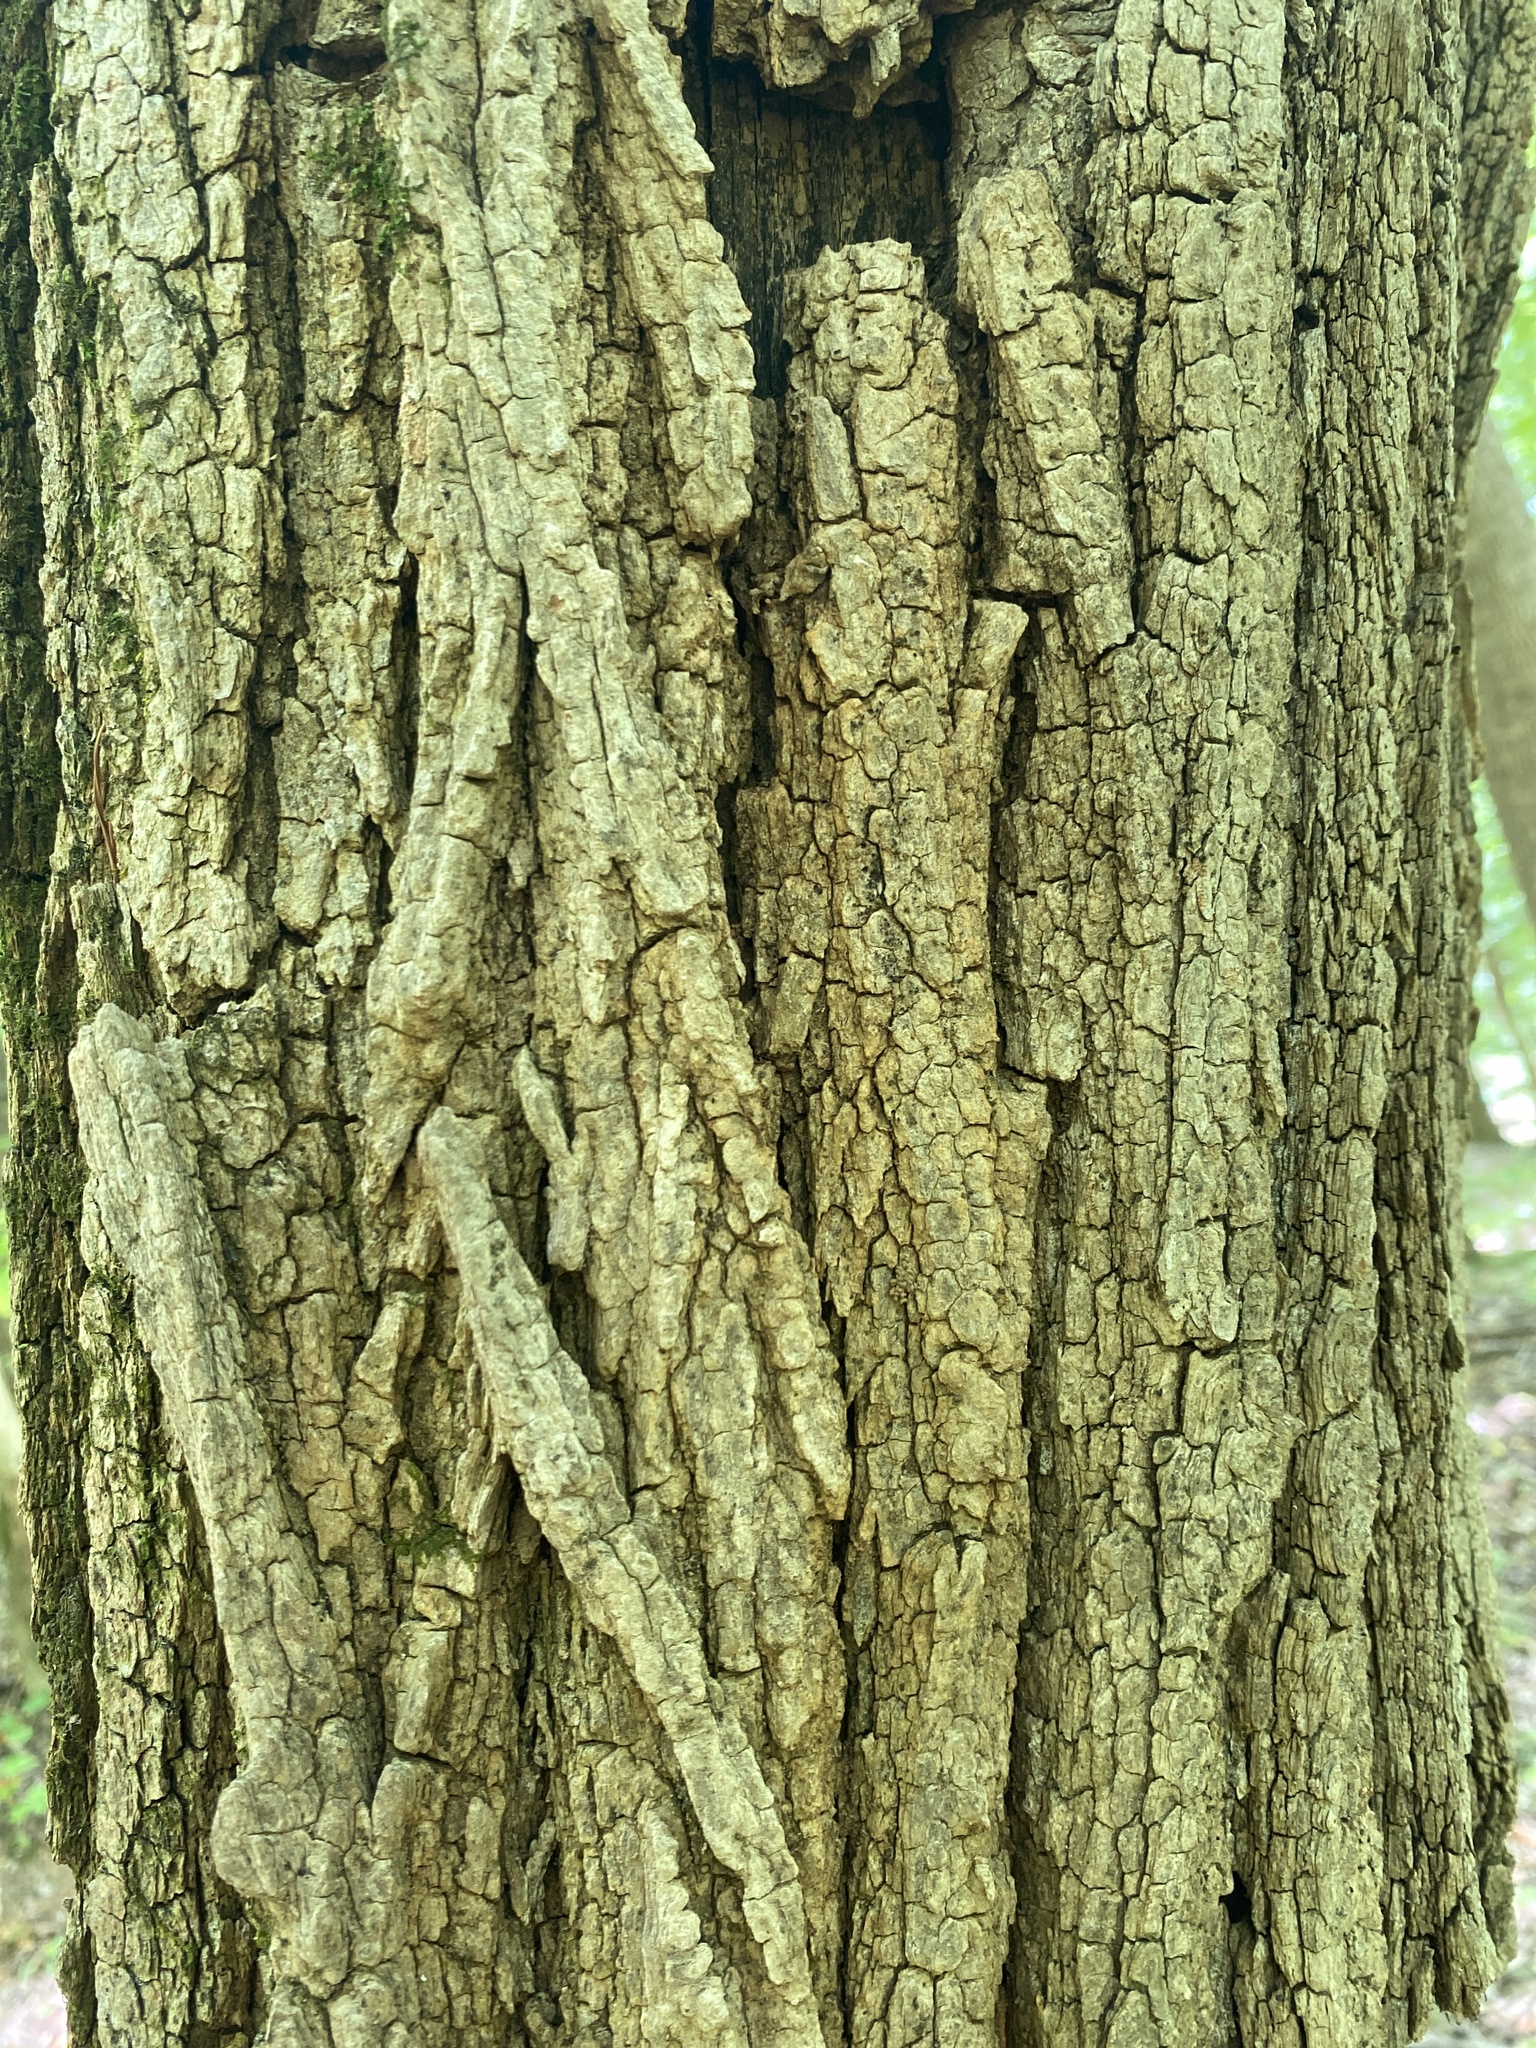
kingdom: Plantae
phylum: Tracheophyta
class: Magnoliopsida
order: Fabales
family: Fabaceae
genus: Robinia
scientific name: Robinia pseudoacacia
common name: Black locust
